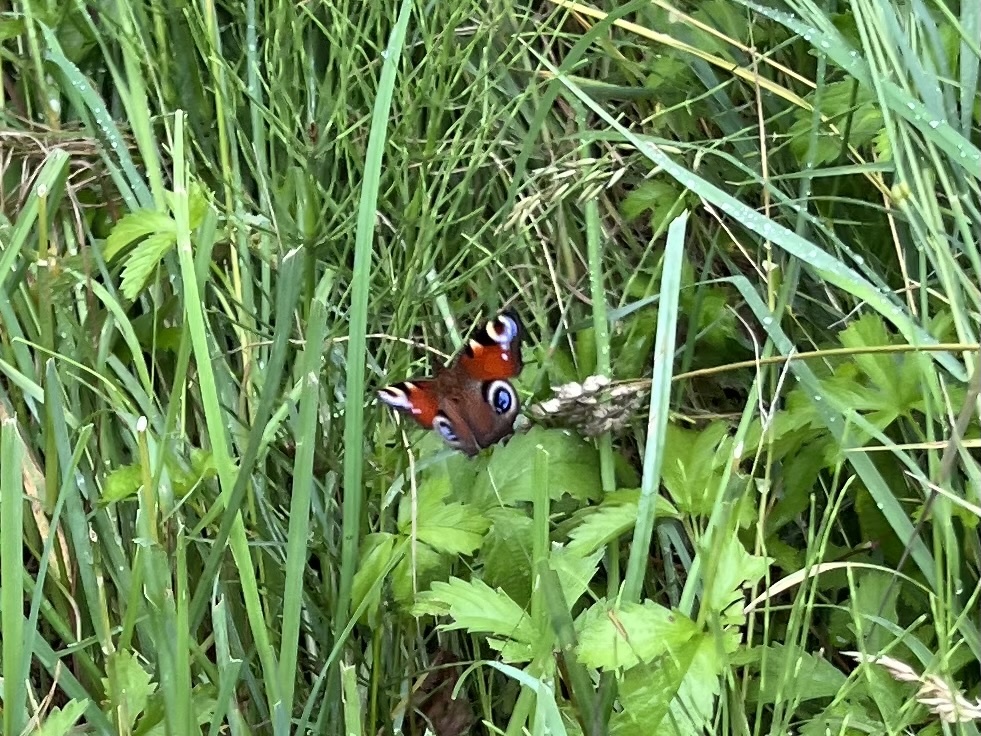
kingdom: Animalia
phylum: Arthropoda
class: Insecta
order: Lepidoptera
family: Nymphalidae
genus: Aglais
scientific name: Aglais io
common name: Peacock
